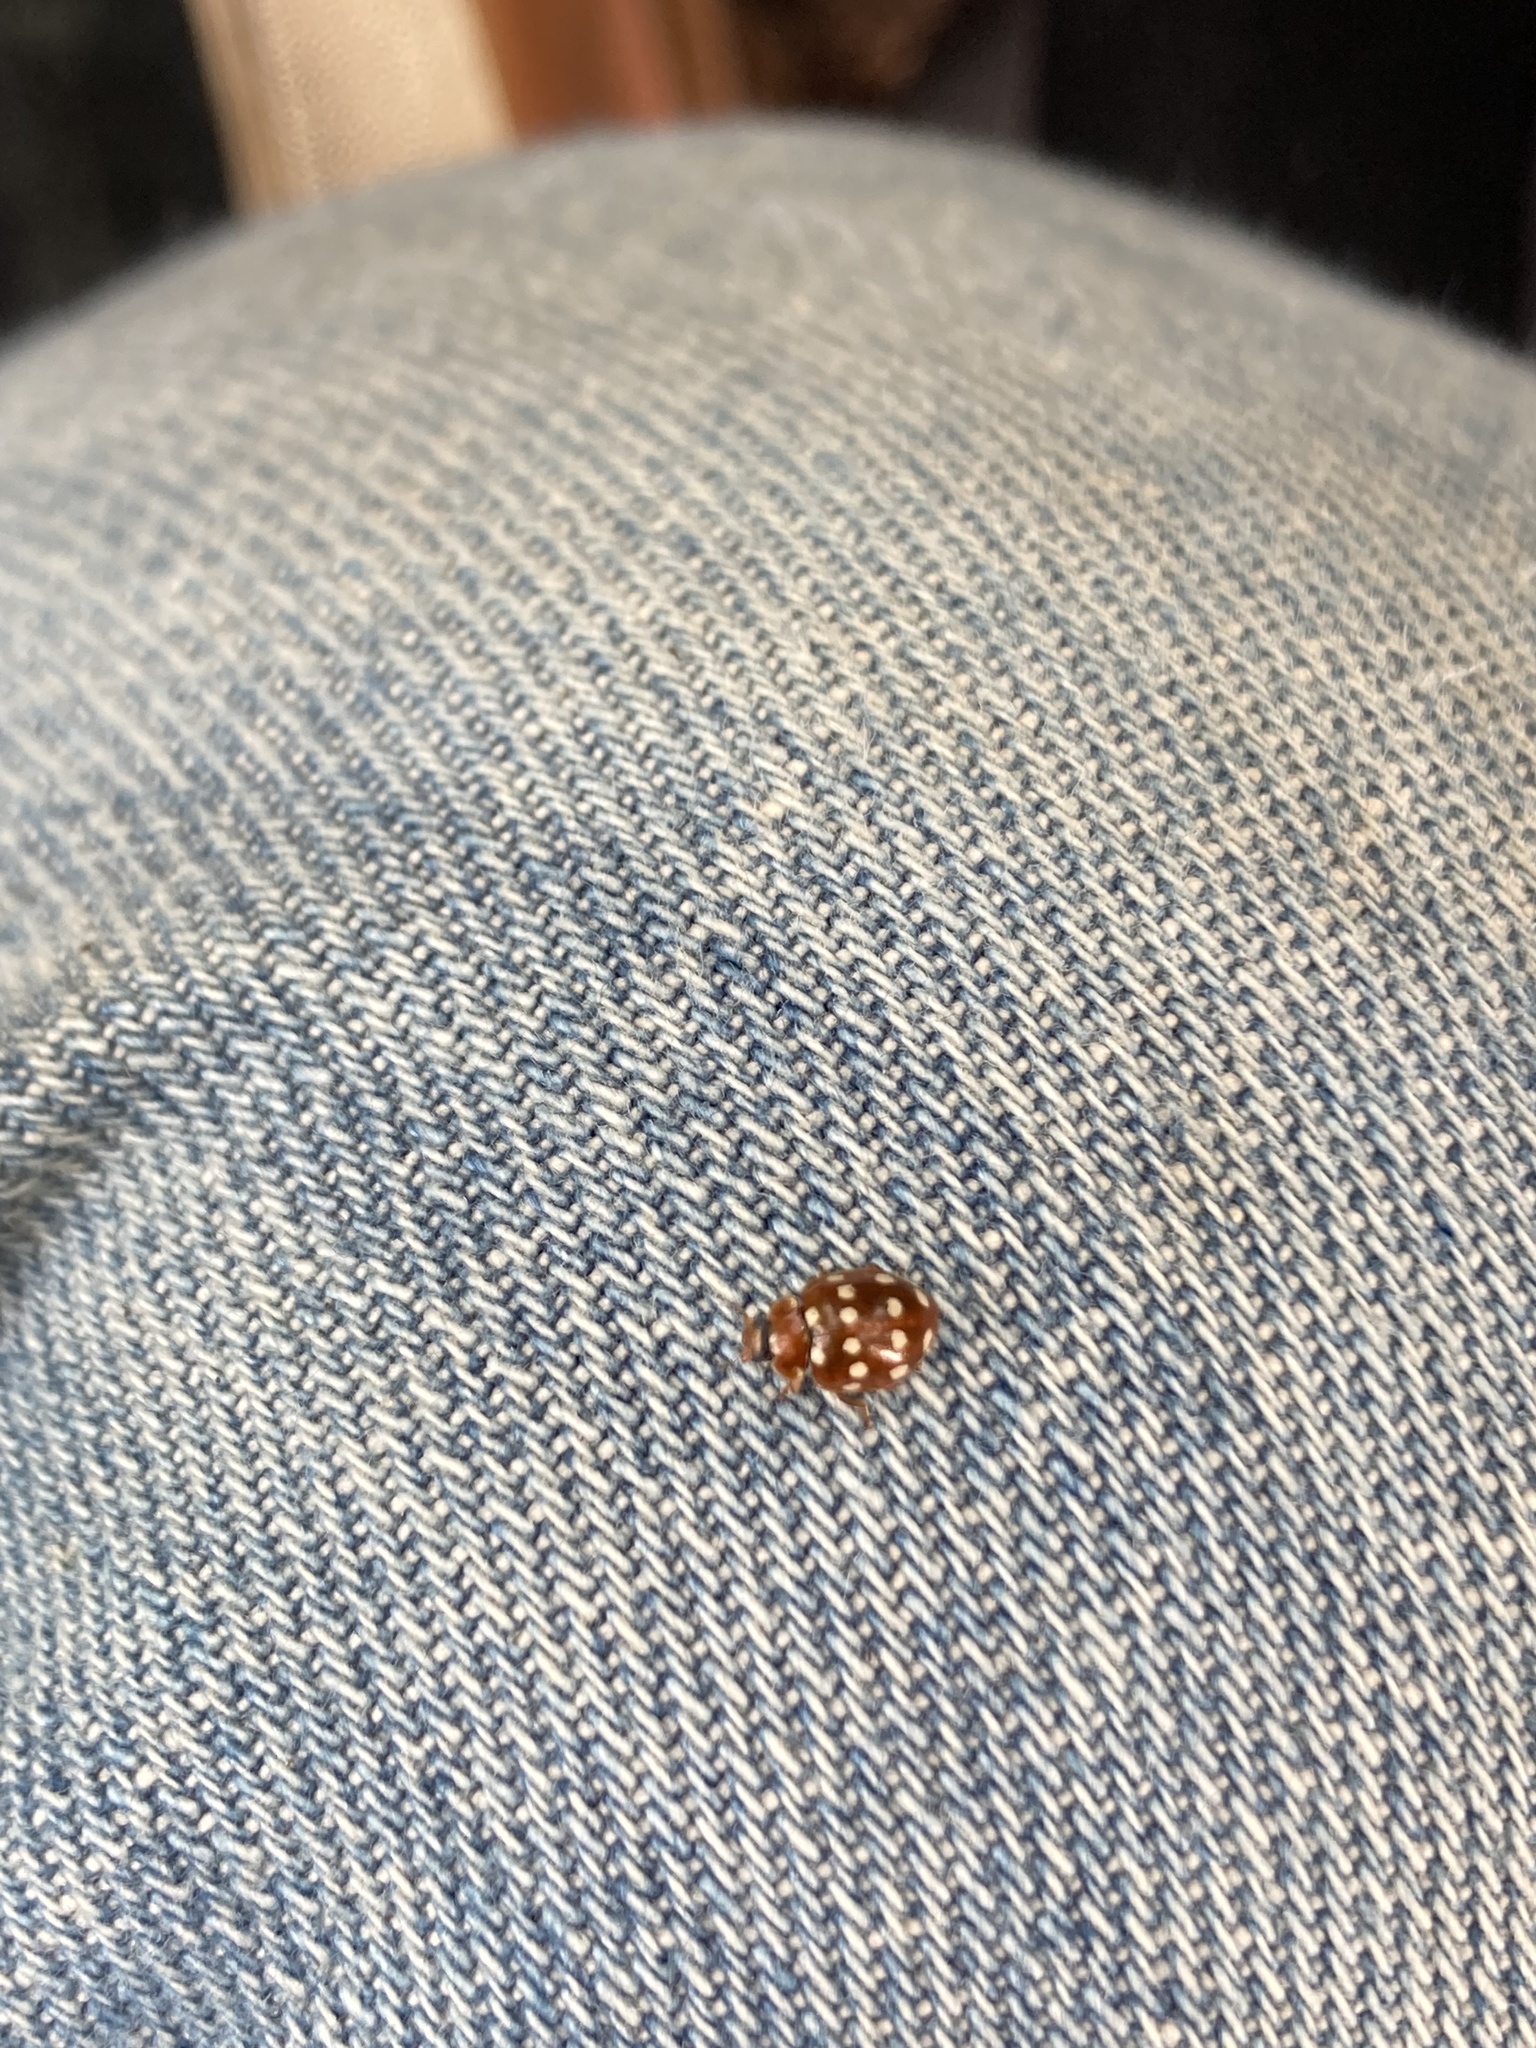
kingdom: Animalia
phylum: Arthropoda
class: Insecta
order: Coleoptera
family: Coccinellidae
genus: Calvia
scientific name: Calvia quatuordecimguttata
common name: Cream-spot ladybird
